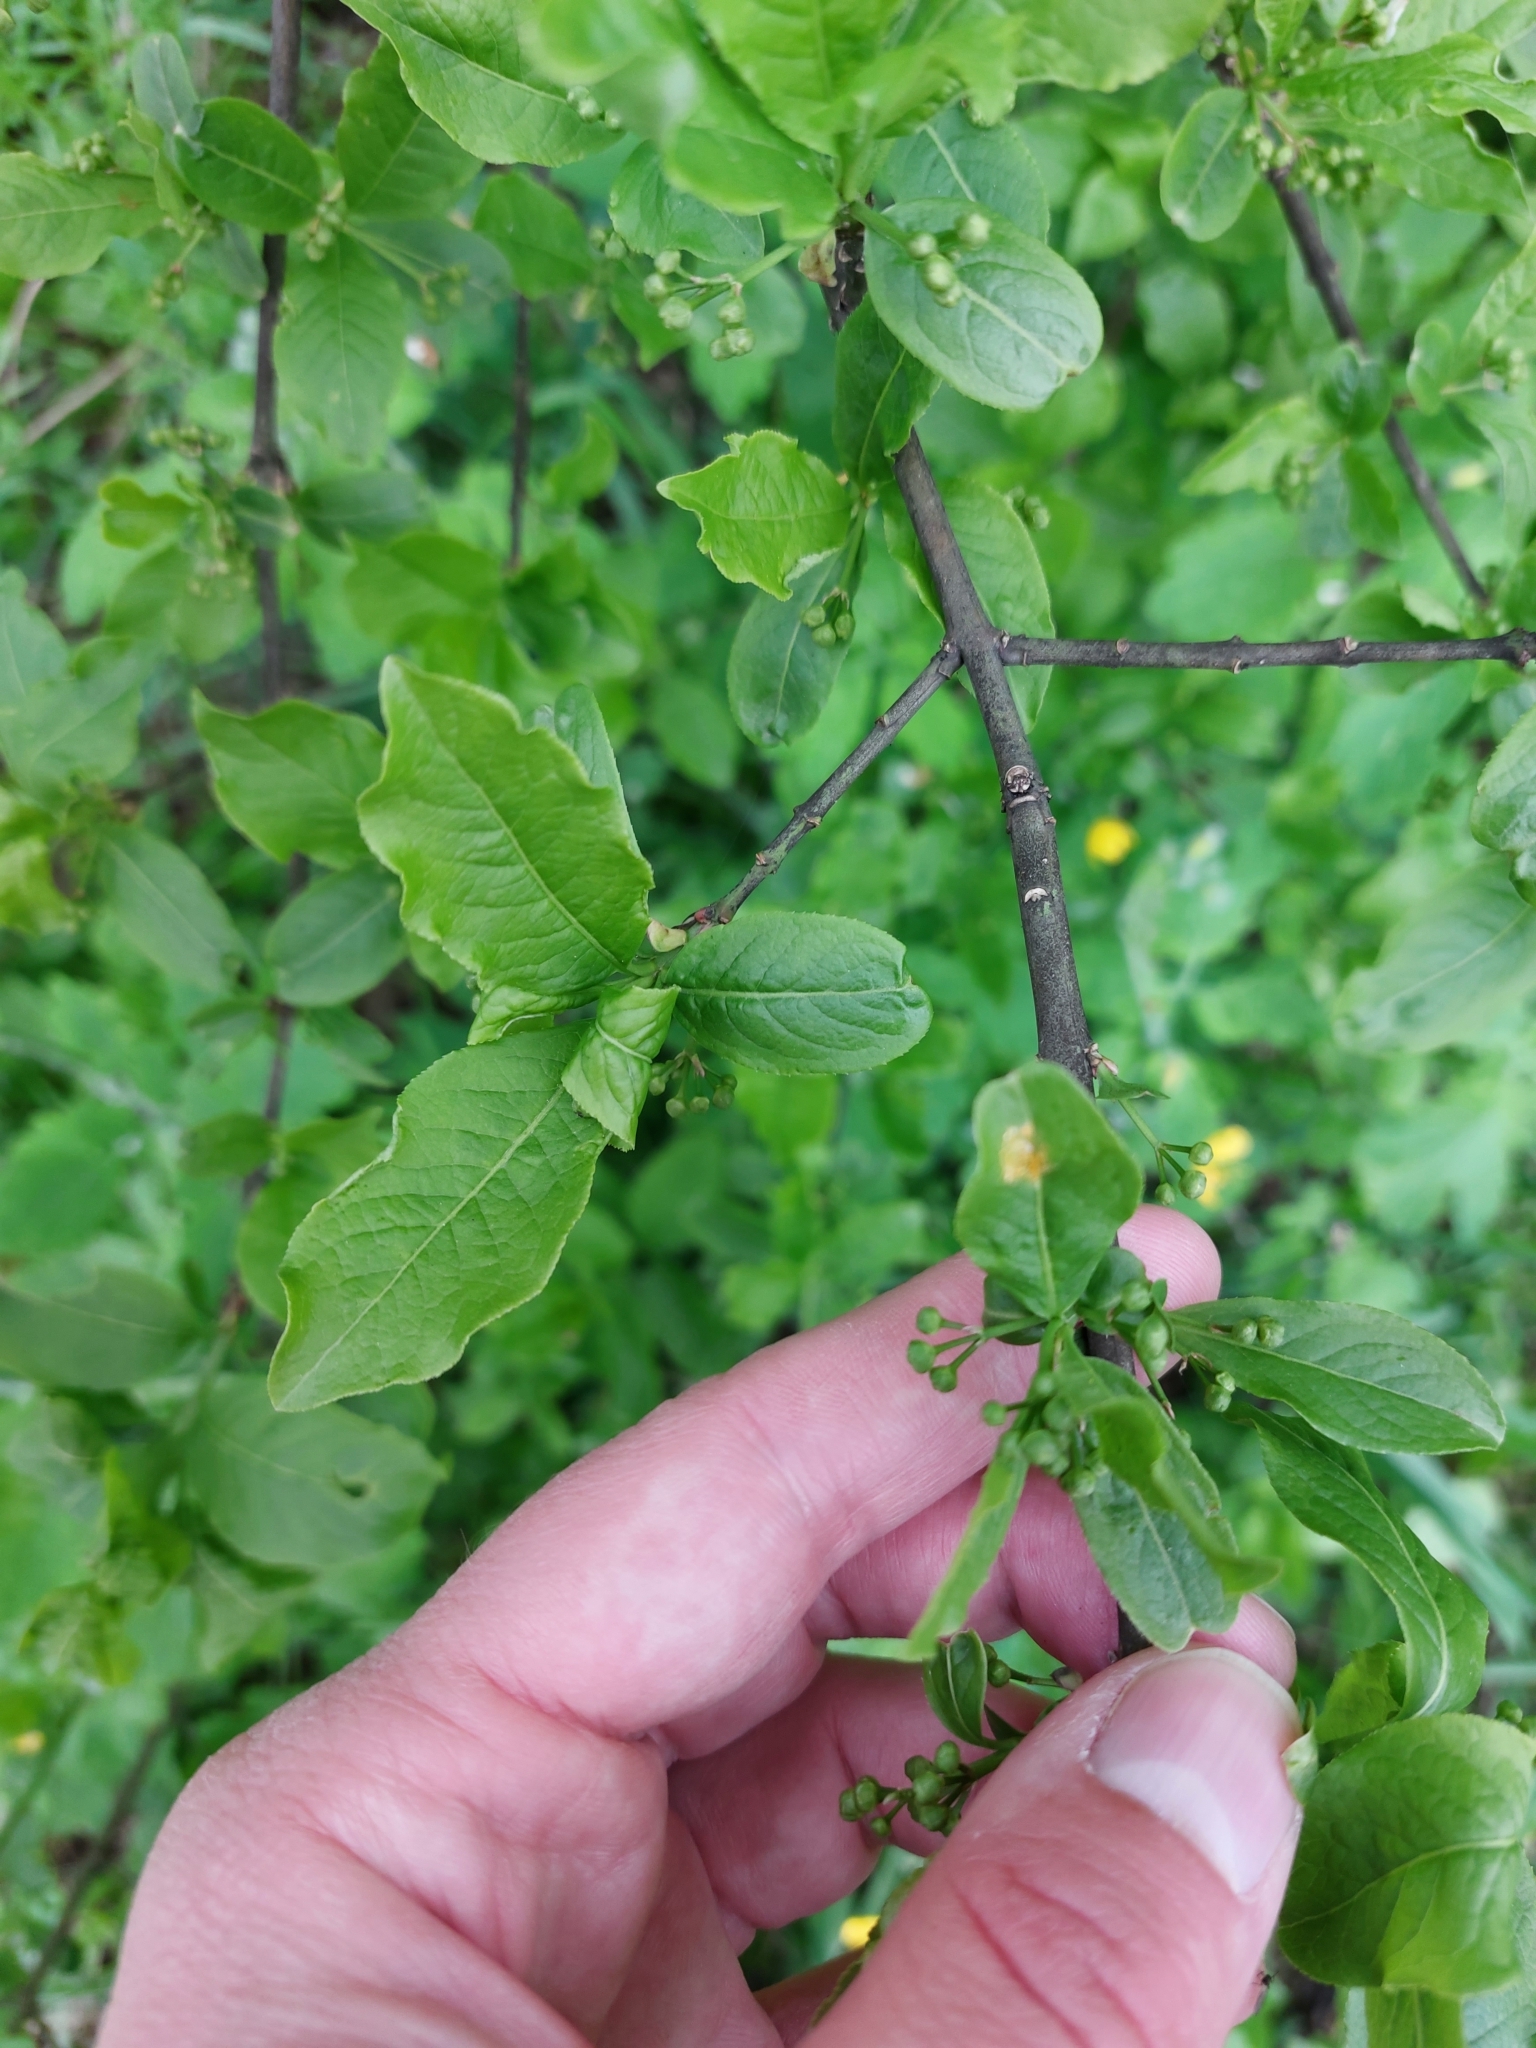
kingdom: Plantae
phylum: Tracheophyta
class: Magnoliopsida
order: Celastrales
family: Celastraceae
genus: Euonymus
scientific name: Euonymus europaeus
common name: Spindle
